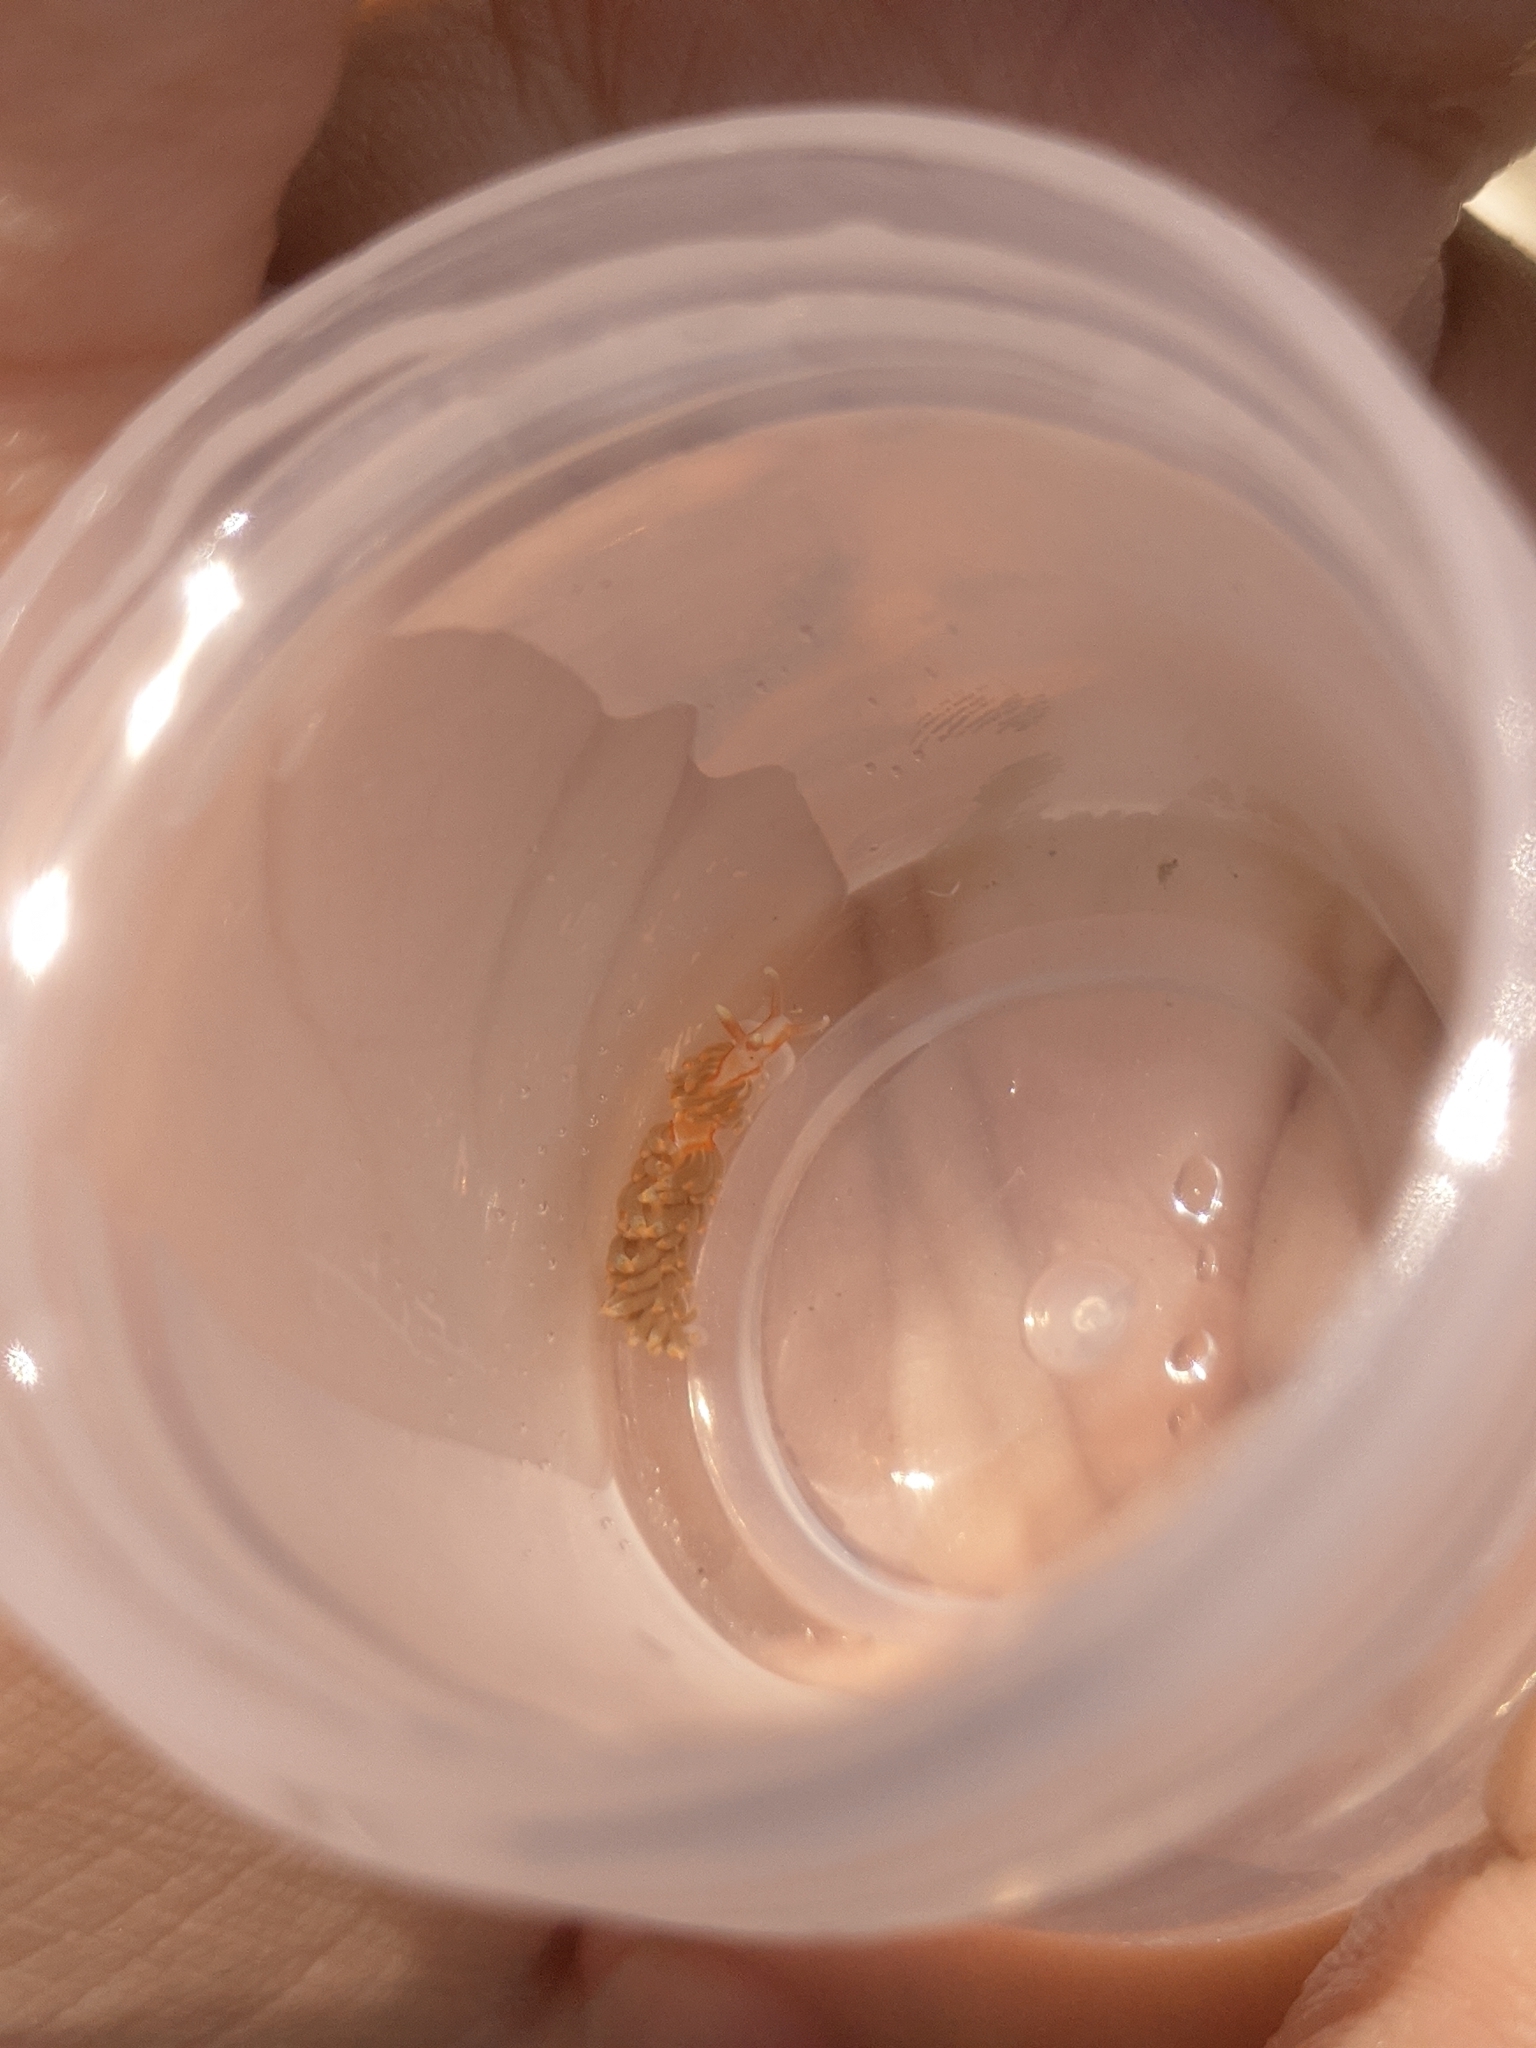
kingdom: Animalia
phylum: Mollusca
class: Gastropoda
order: Nudibranchia
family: Aeolidiidae
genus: Berghia
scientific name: Berghia columbina
